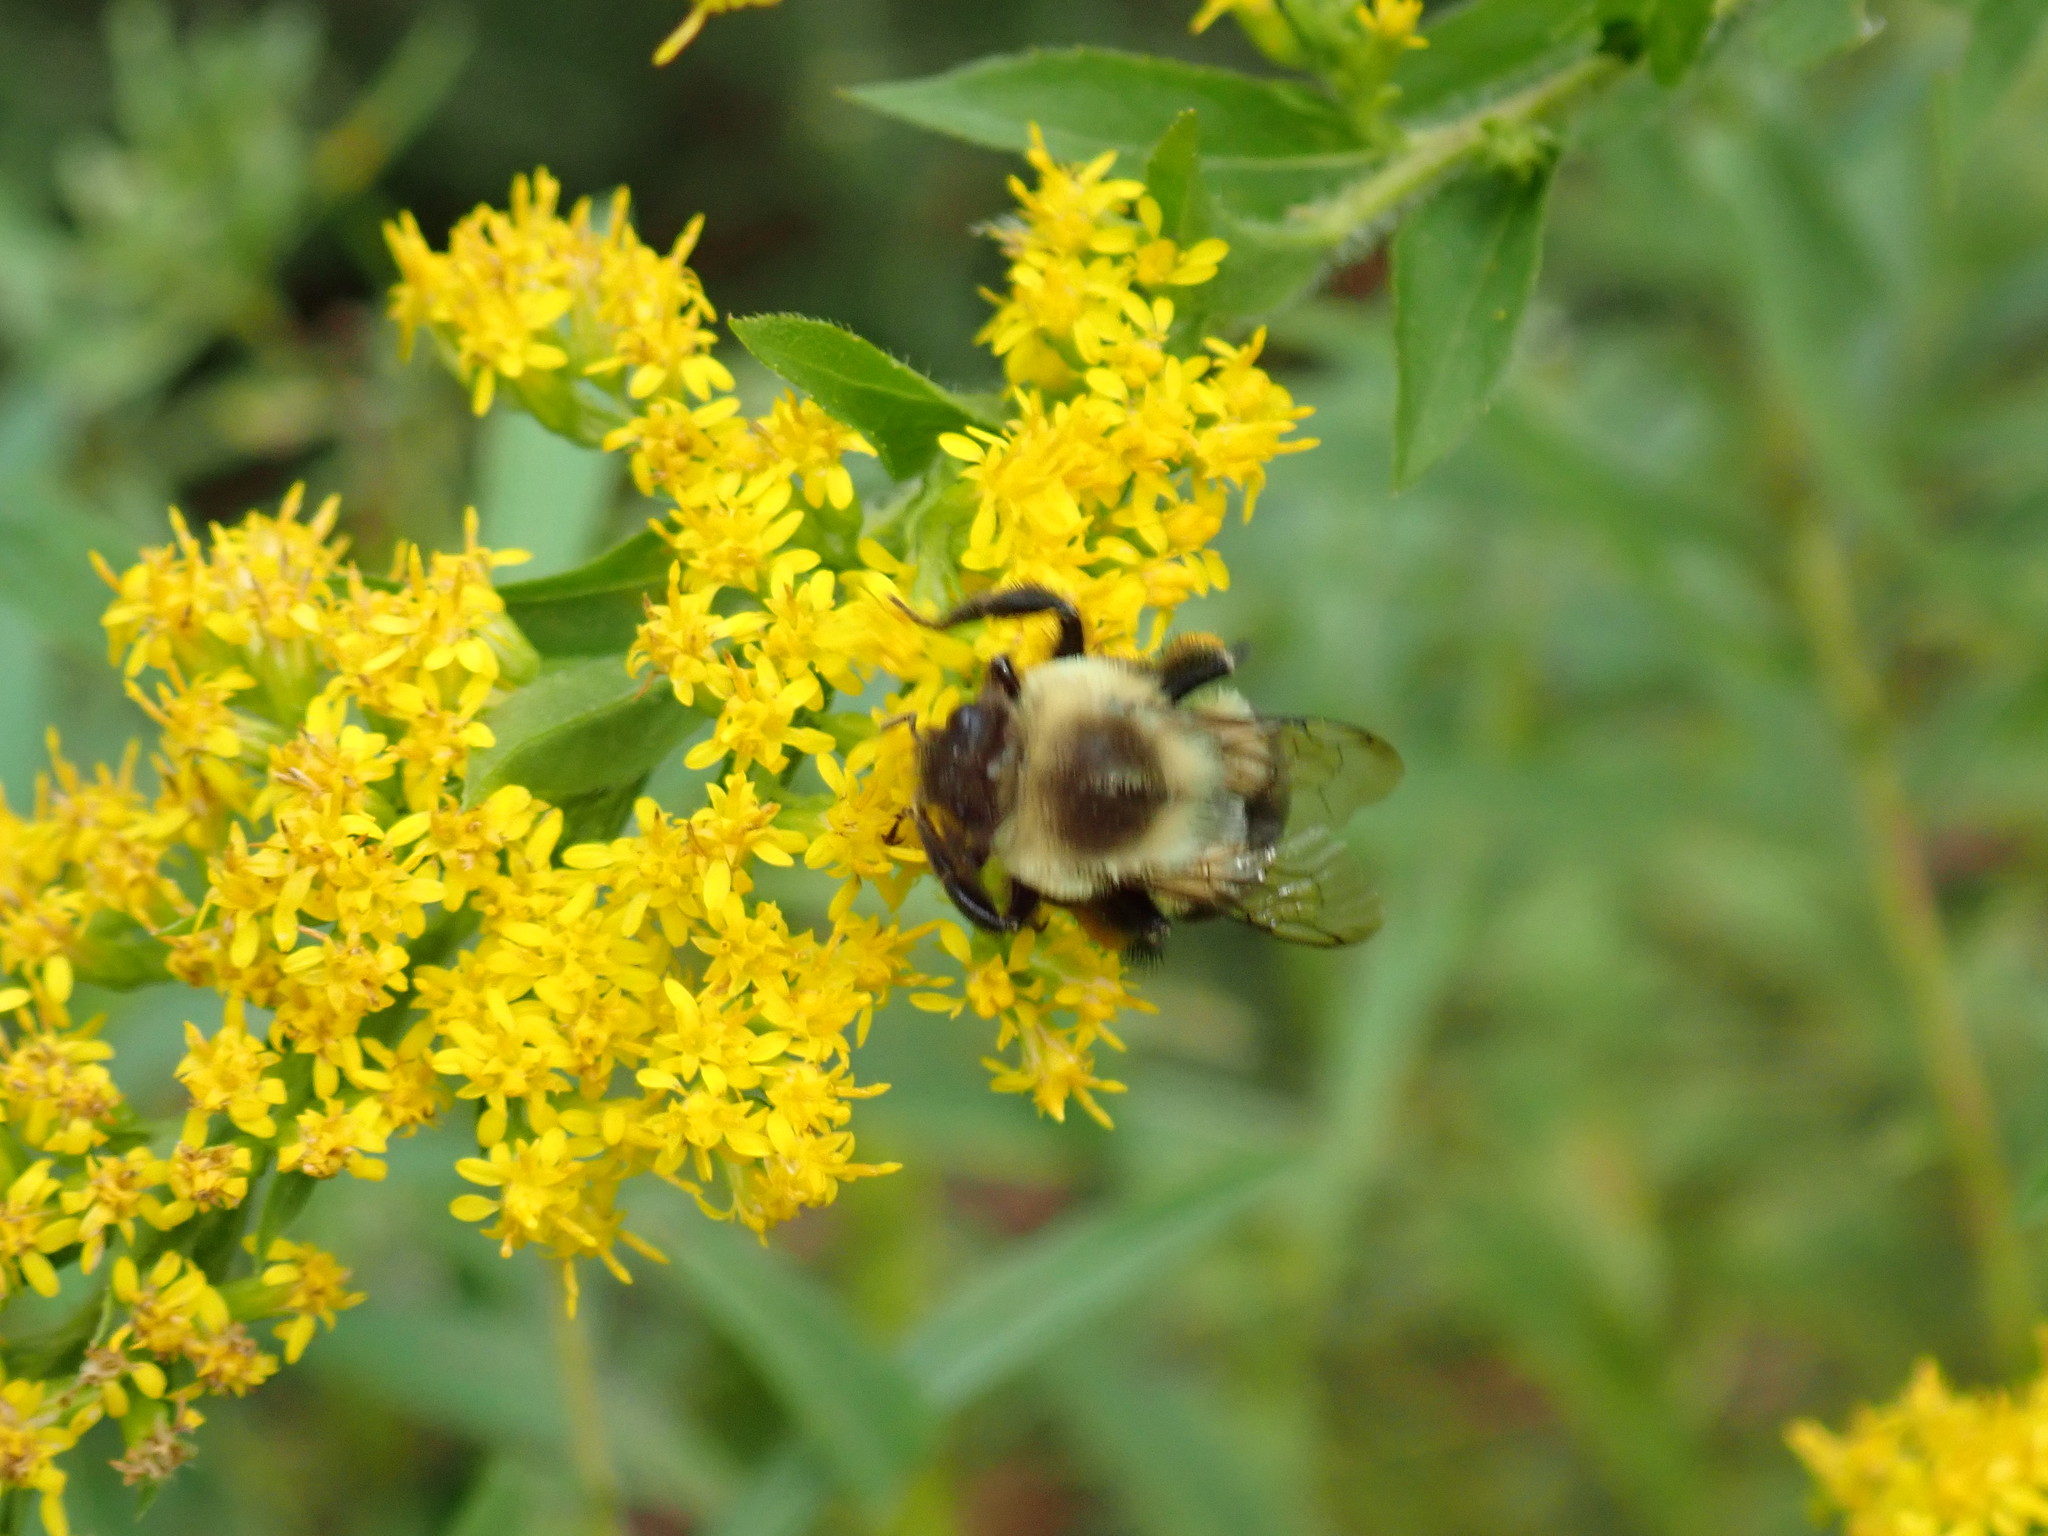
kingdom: Animalia
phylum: Arthropoda
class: Insecta
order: Hymenoptera
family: Apidae
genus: Bombus
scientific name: Bombus impatiens
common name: Common eastern bumble bee
